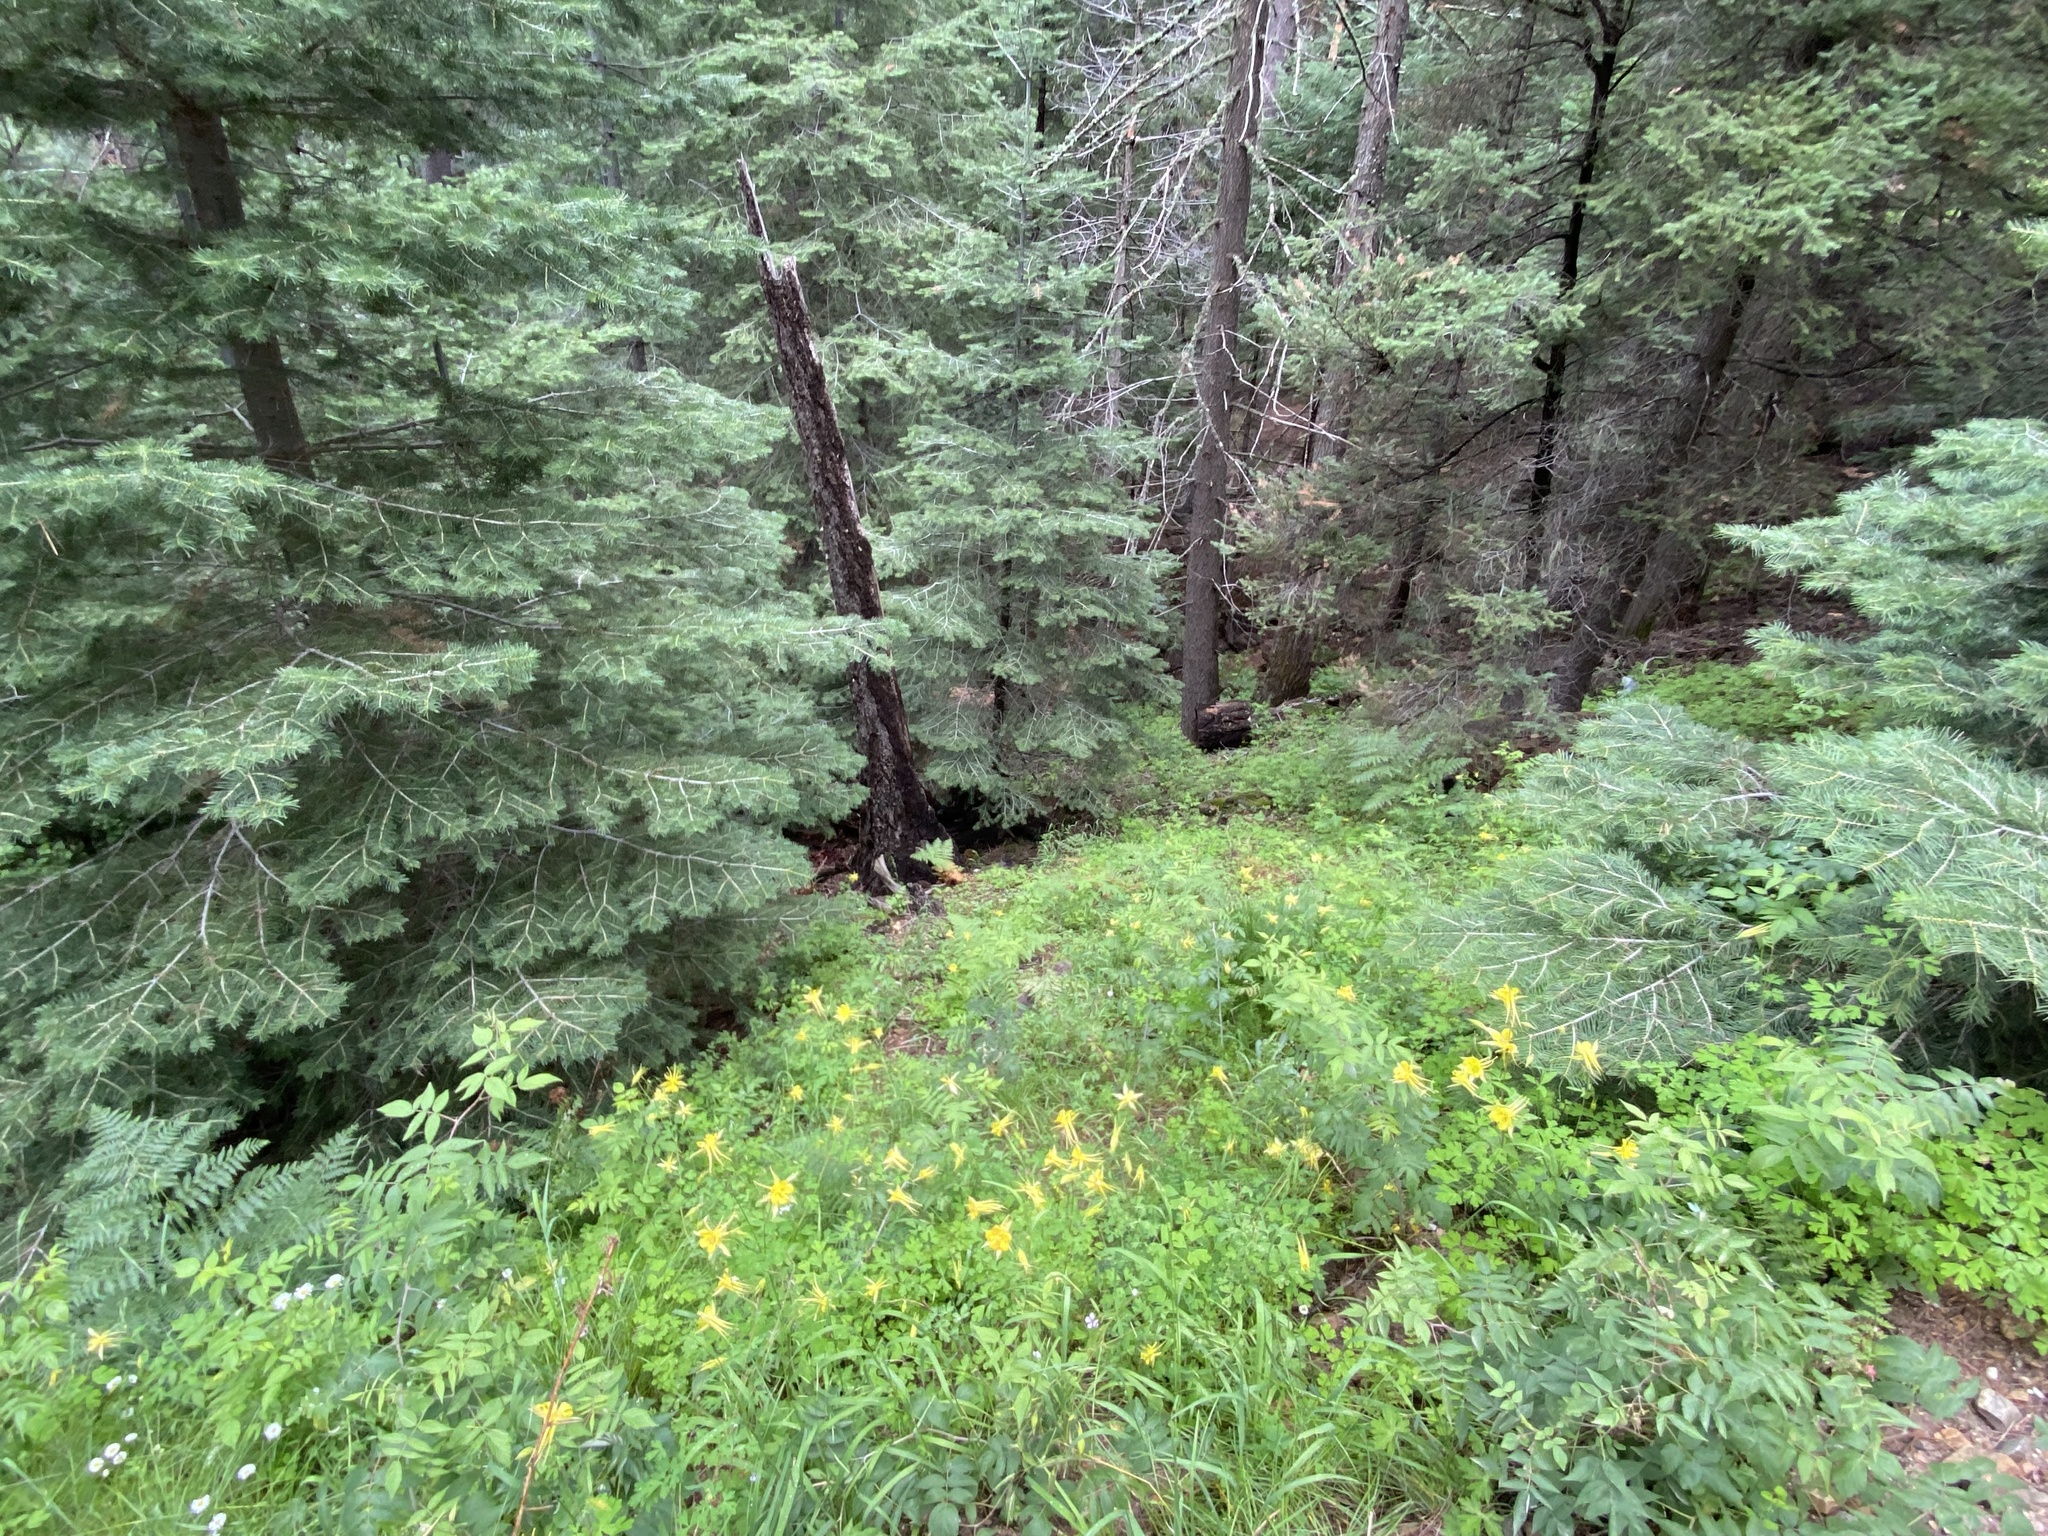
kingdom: Plantae
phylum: Tracheophyta
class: Magnoliopsida
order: Ranunculales
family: Ranunculaceae
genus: Aquilegia
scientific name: Aquilegia chrysantha
